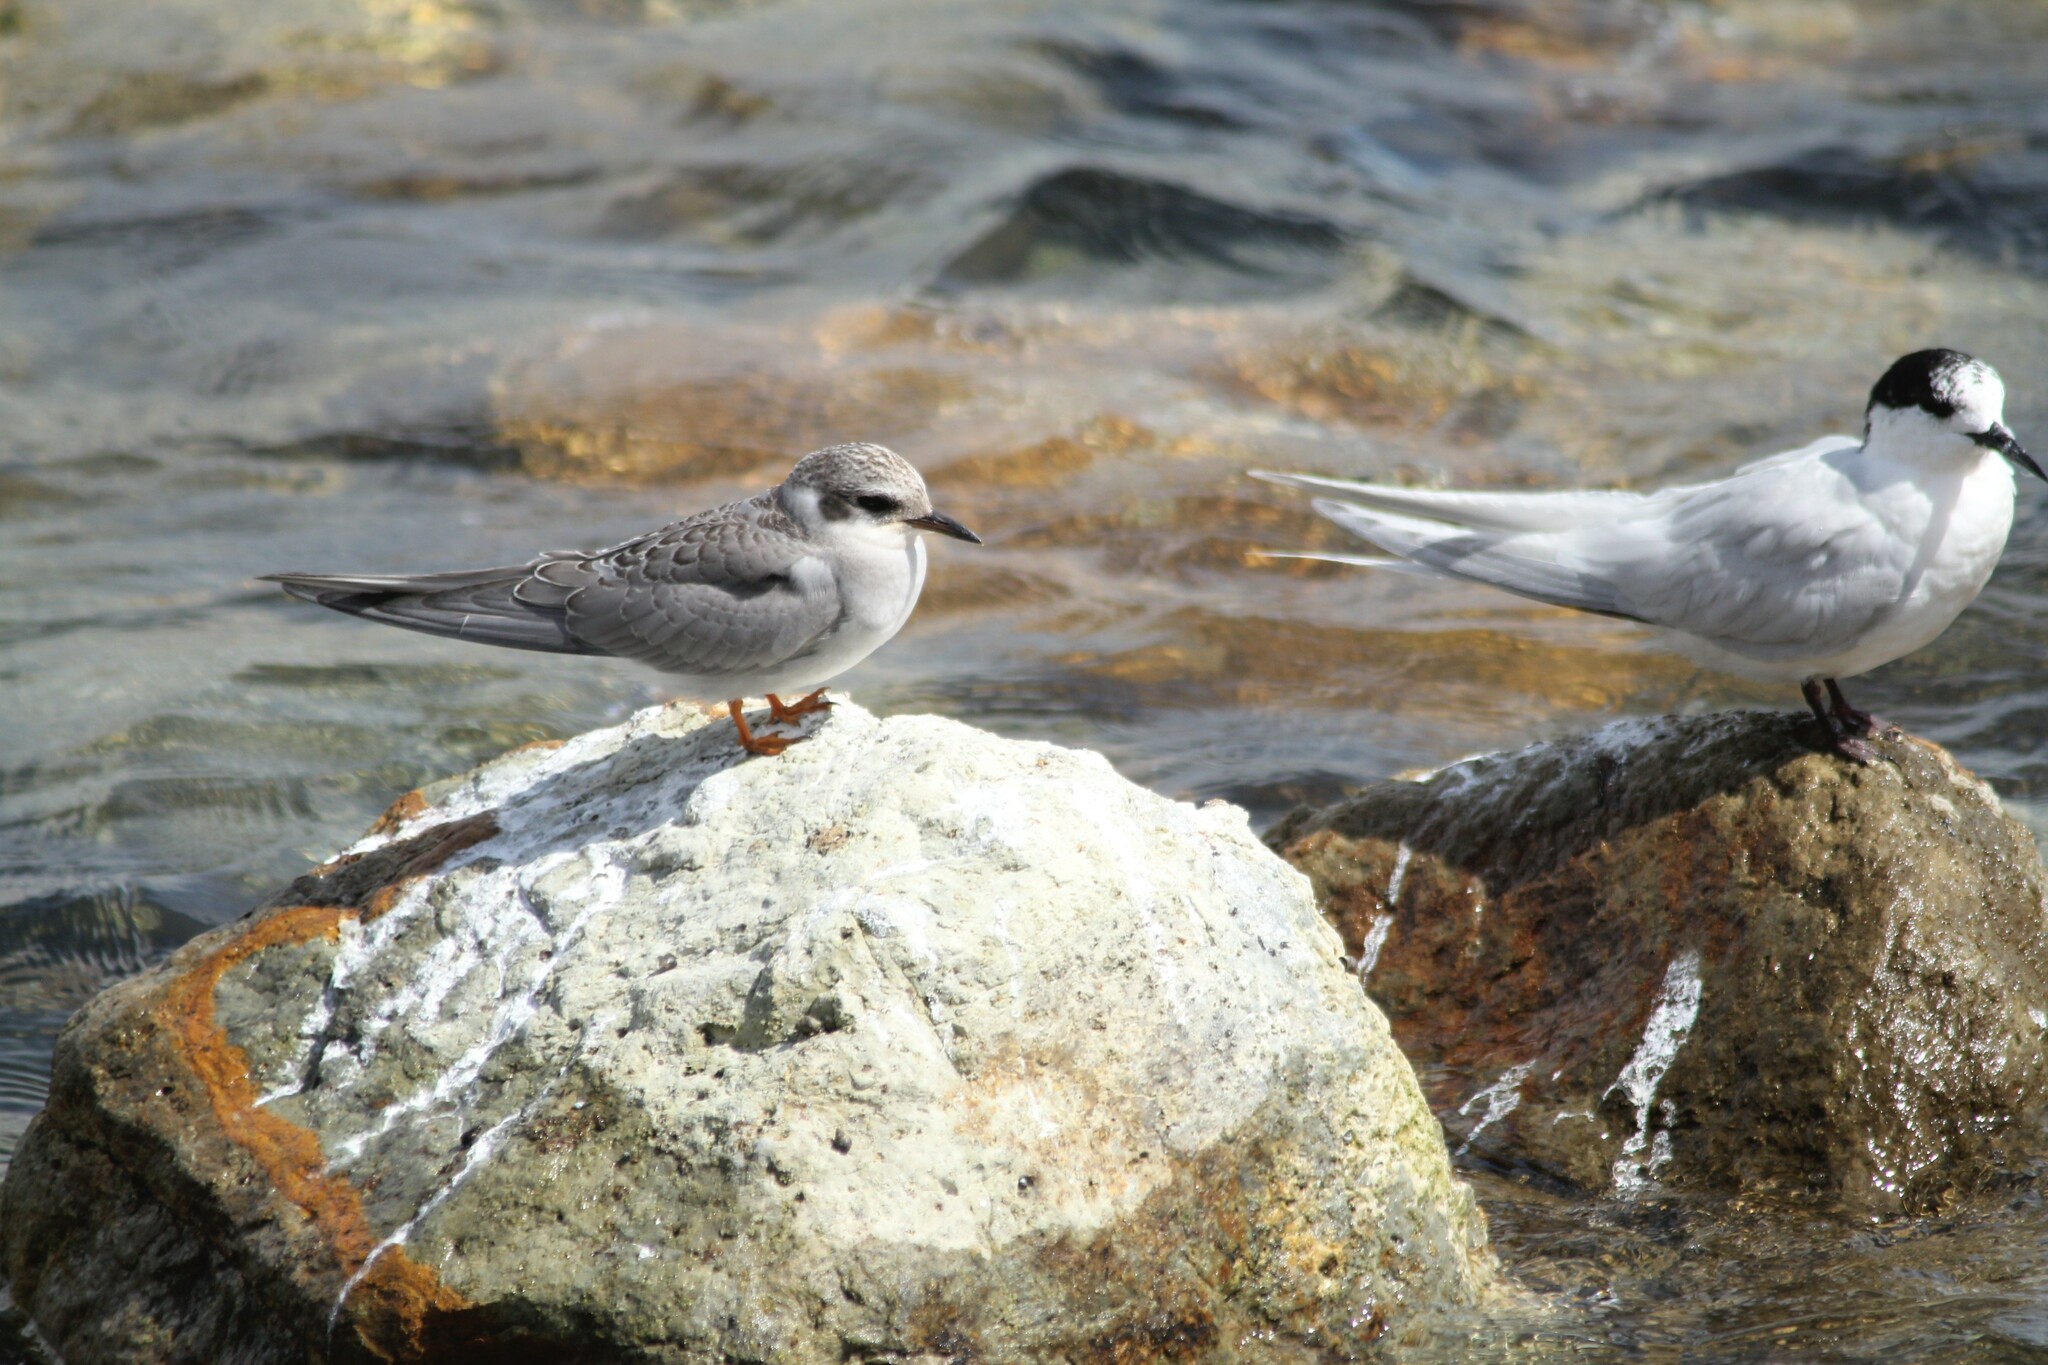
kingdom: Animalia
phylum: Chordata
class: Aves
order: Charadriiformes
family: Laridae
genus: Chlidonias
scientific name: Chlidonias albostriatus
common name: Black-fronted tern
